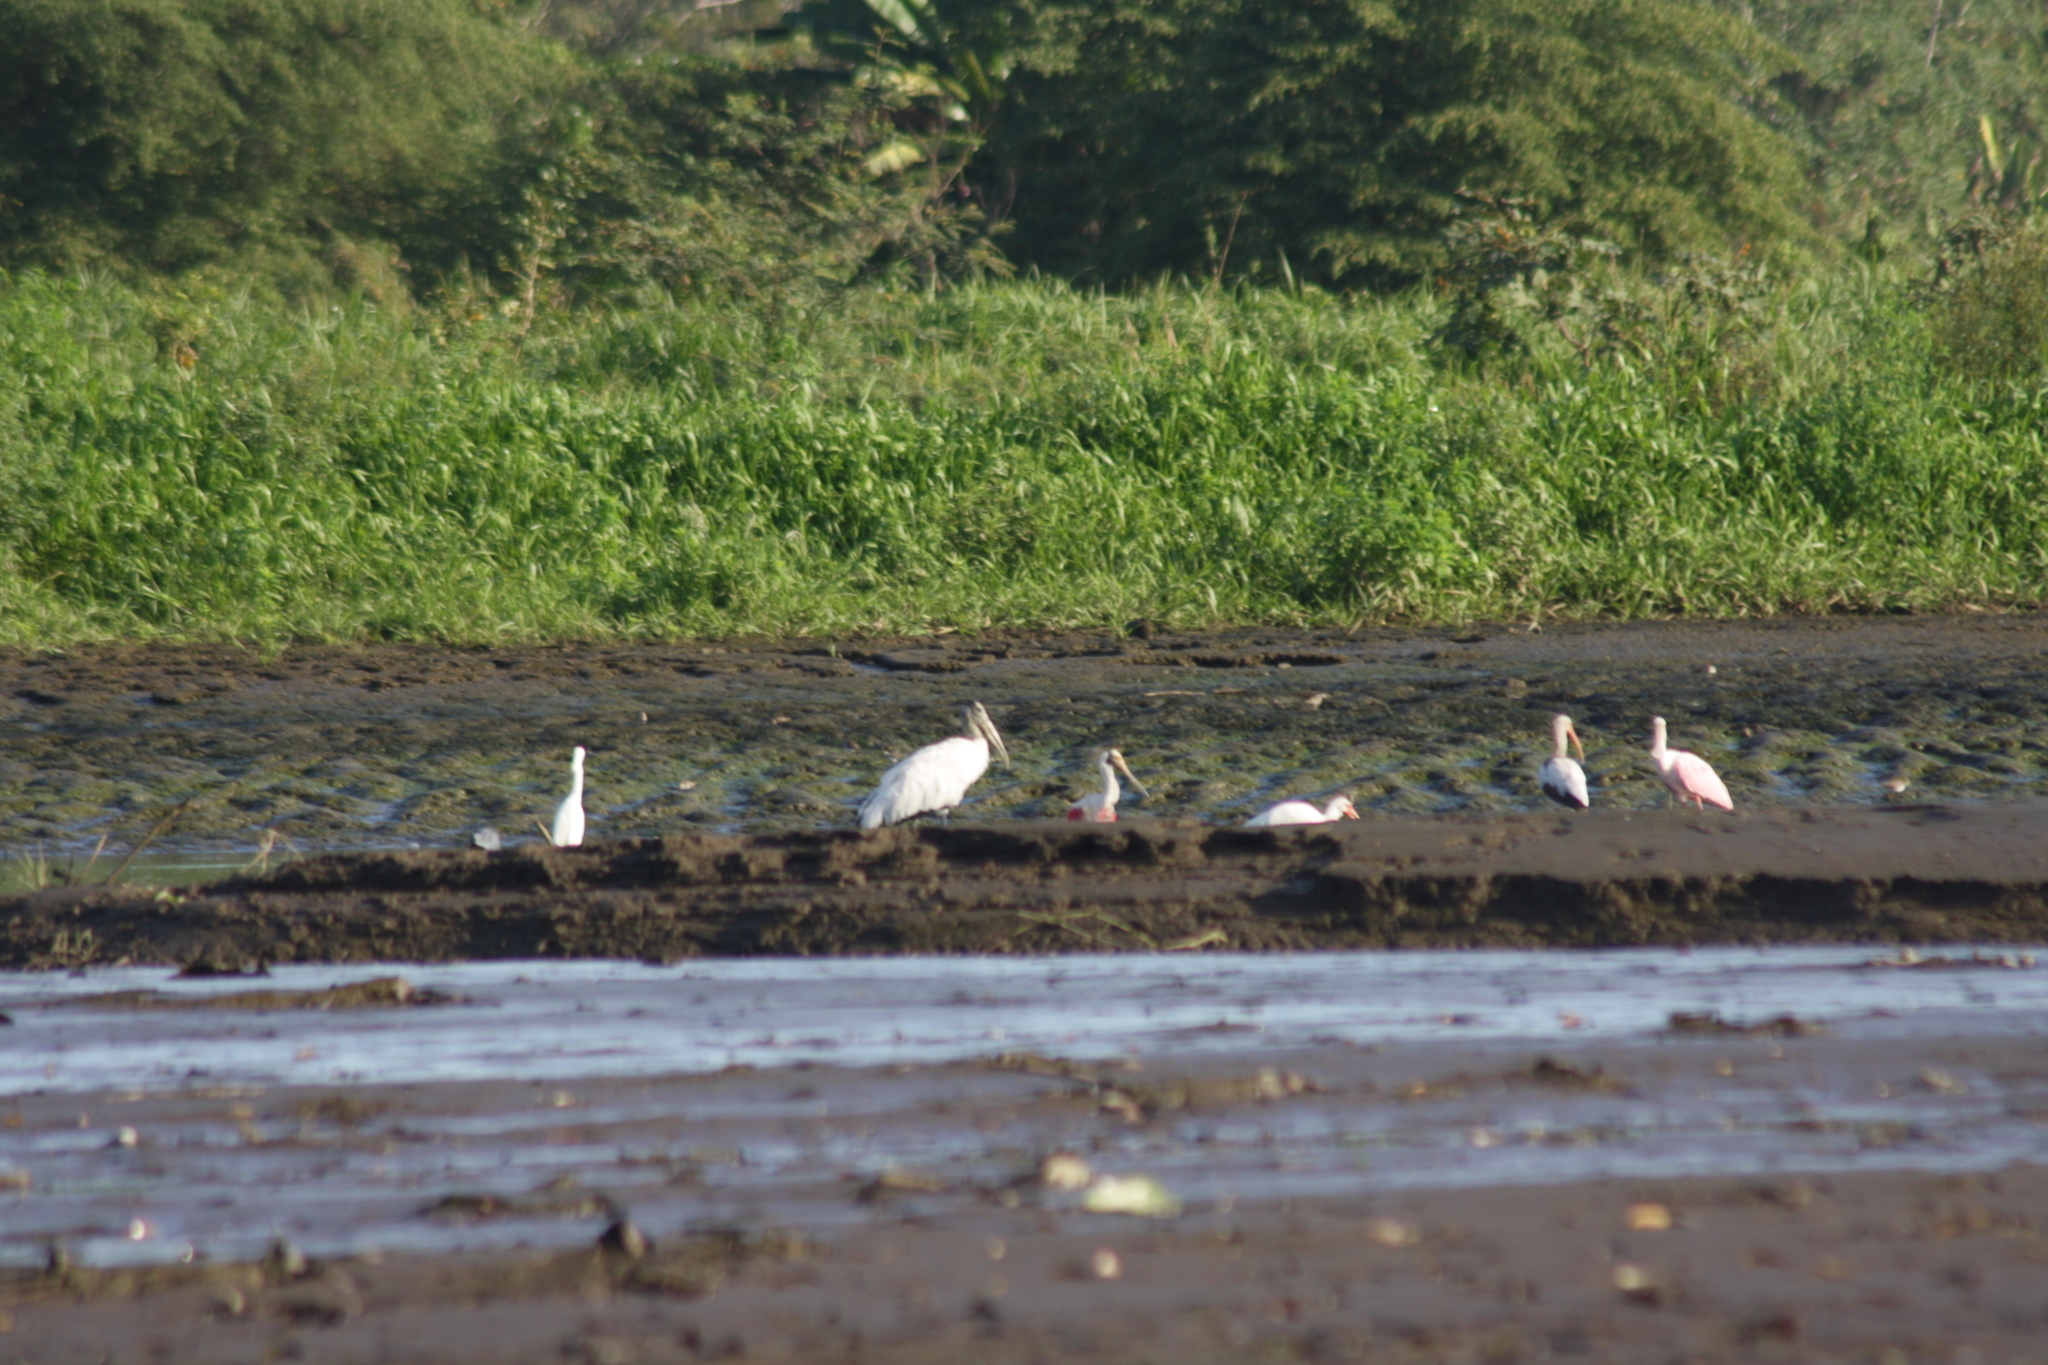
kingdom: Animalia
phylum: Chordata
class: Aves
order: Pelecaniformes
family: Threskiornithidae
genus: Platalea
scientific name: Platalea ajaja
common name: Roseate spoonbill
